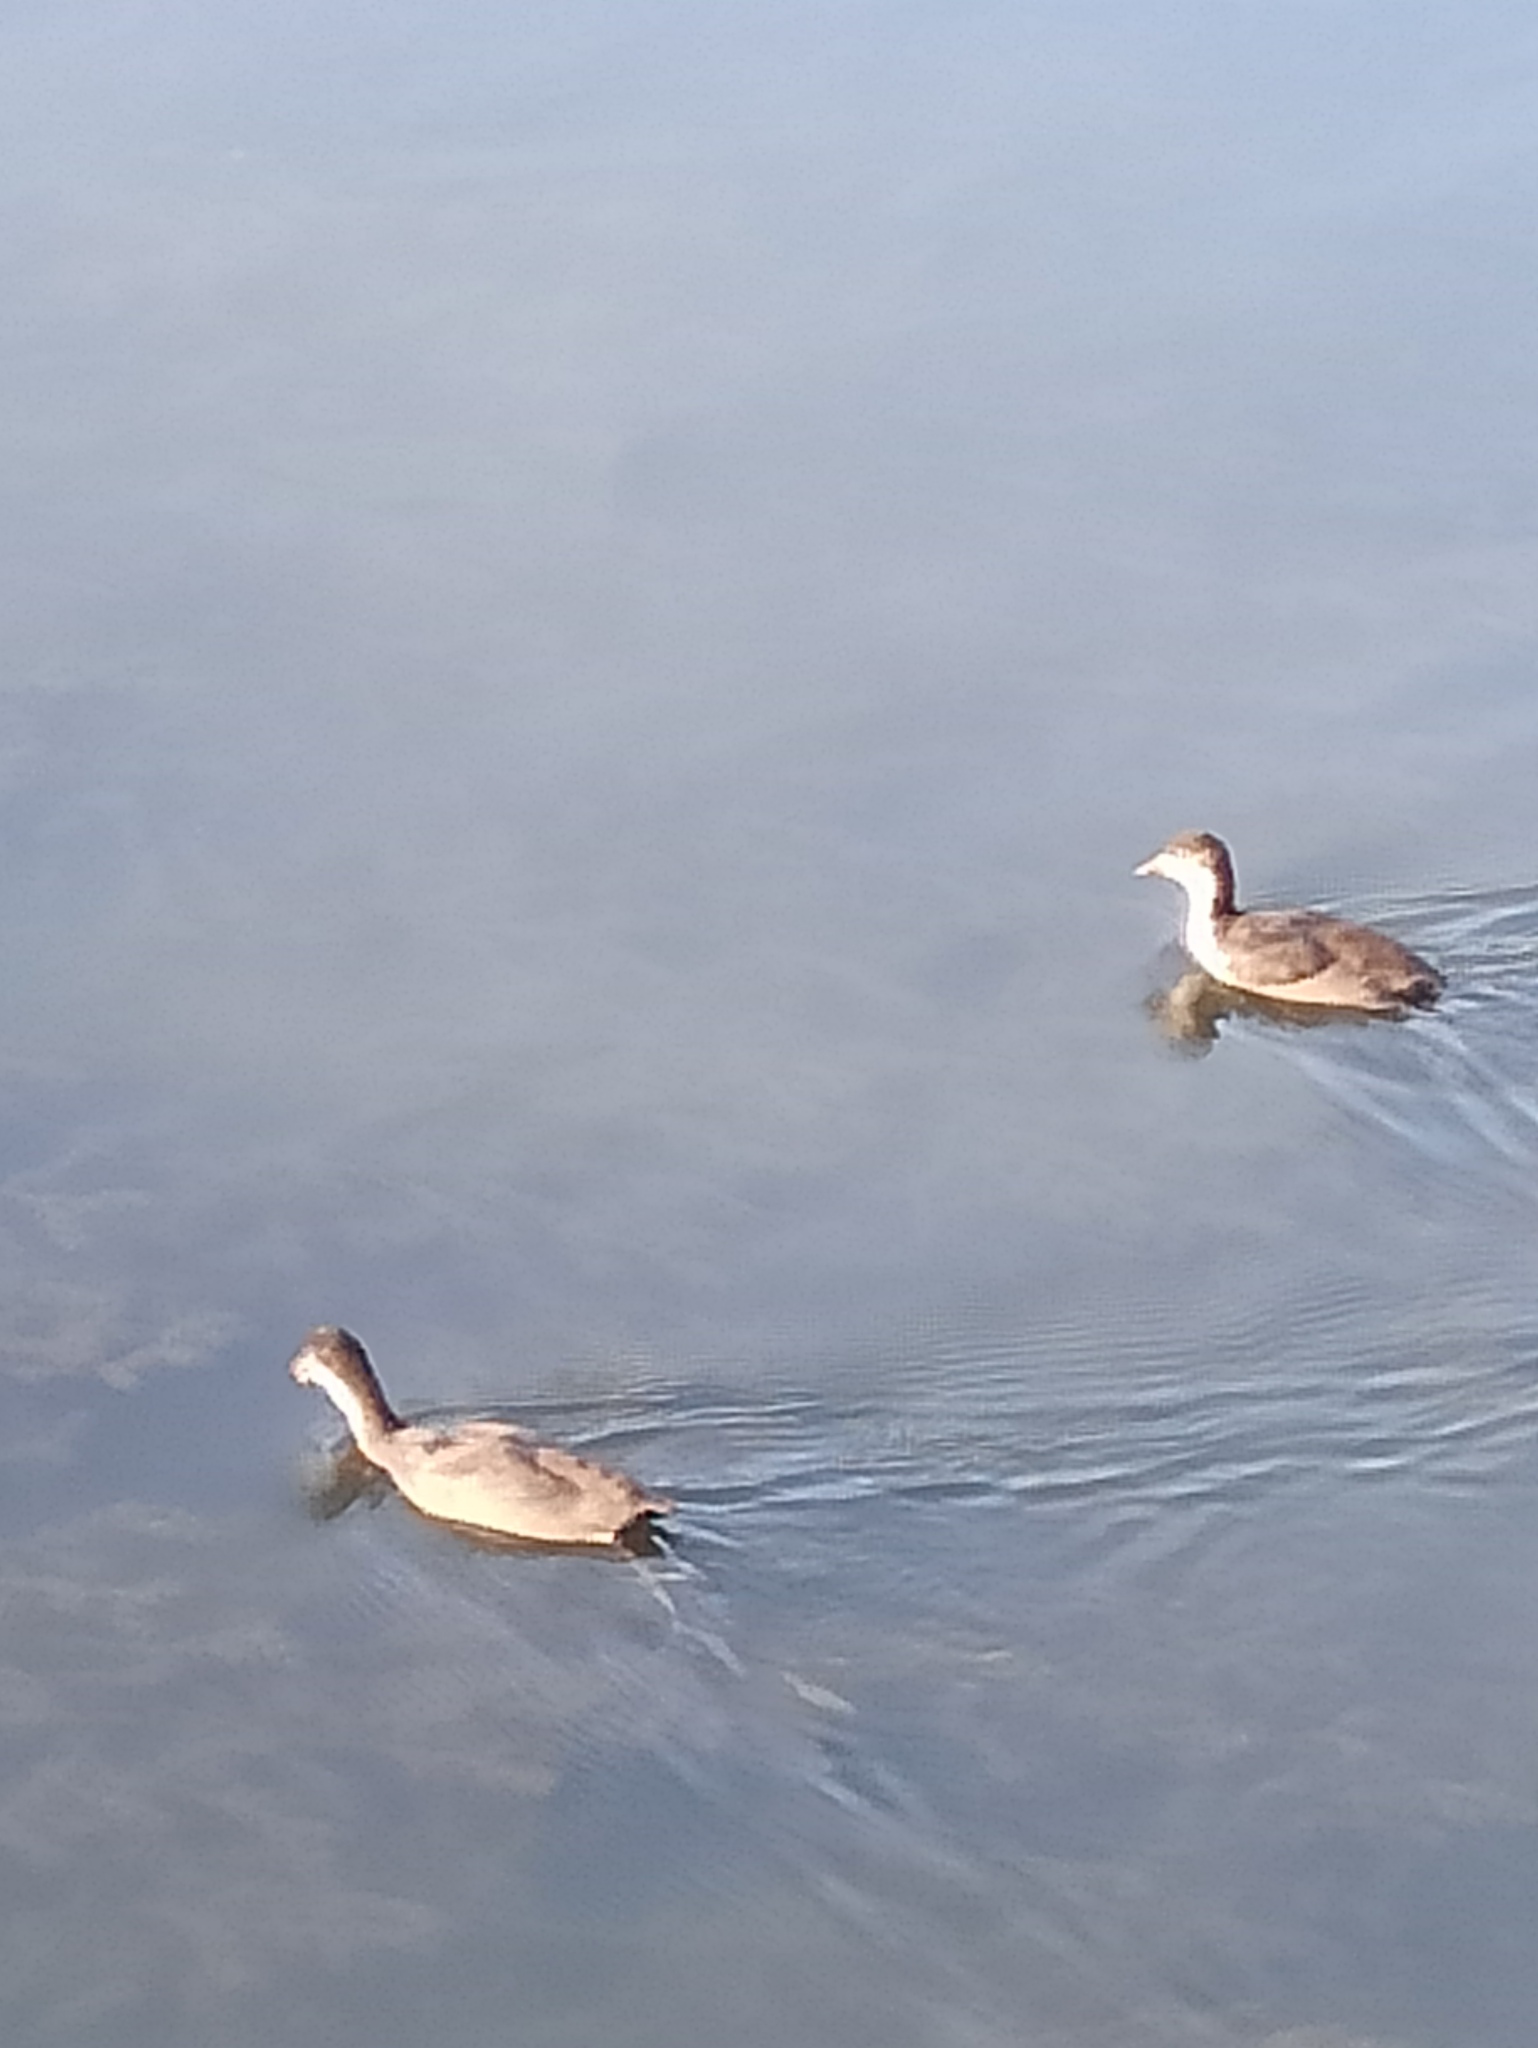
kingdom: Animalia
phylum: Chordata
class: Aves
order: Gruiformes
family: Rallidae
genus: Fulica
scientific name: Fulica atra
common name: Eurasian coot
